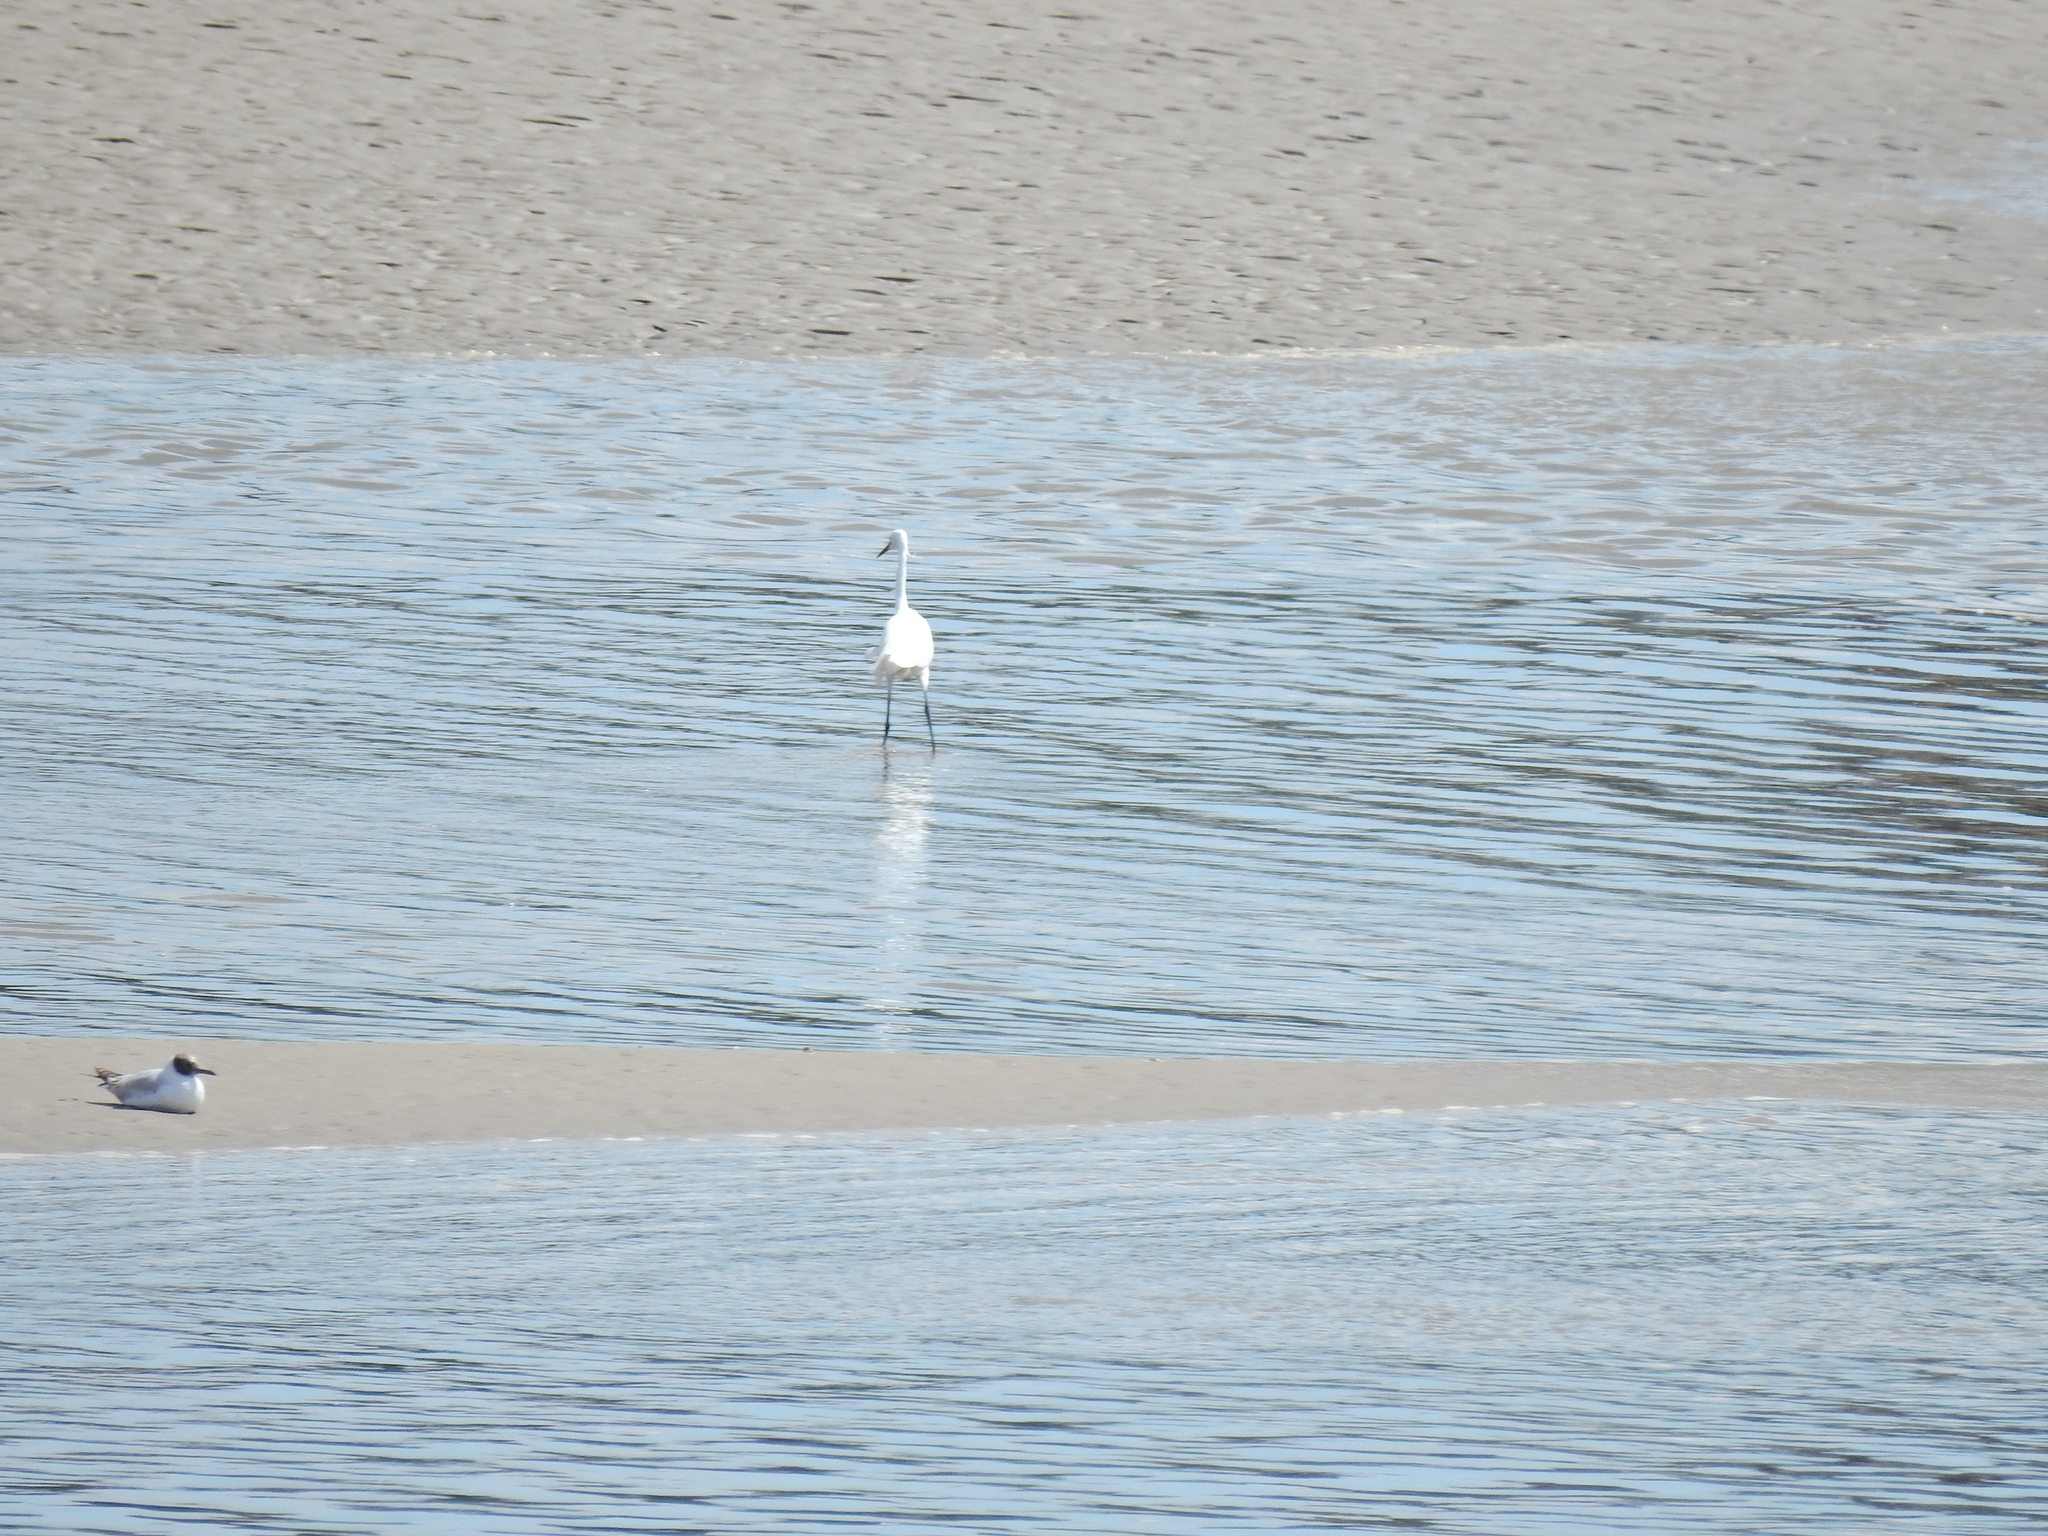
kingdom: Animalia
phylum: Chordata
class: Aves
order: Pelecaniformes
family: Ardeidae
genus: Egretta
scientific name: Egretta garzetta
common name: Little egret
